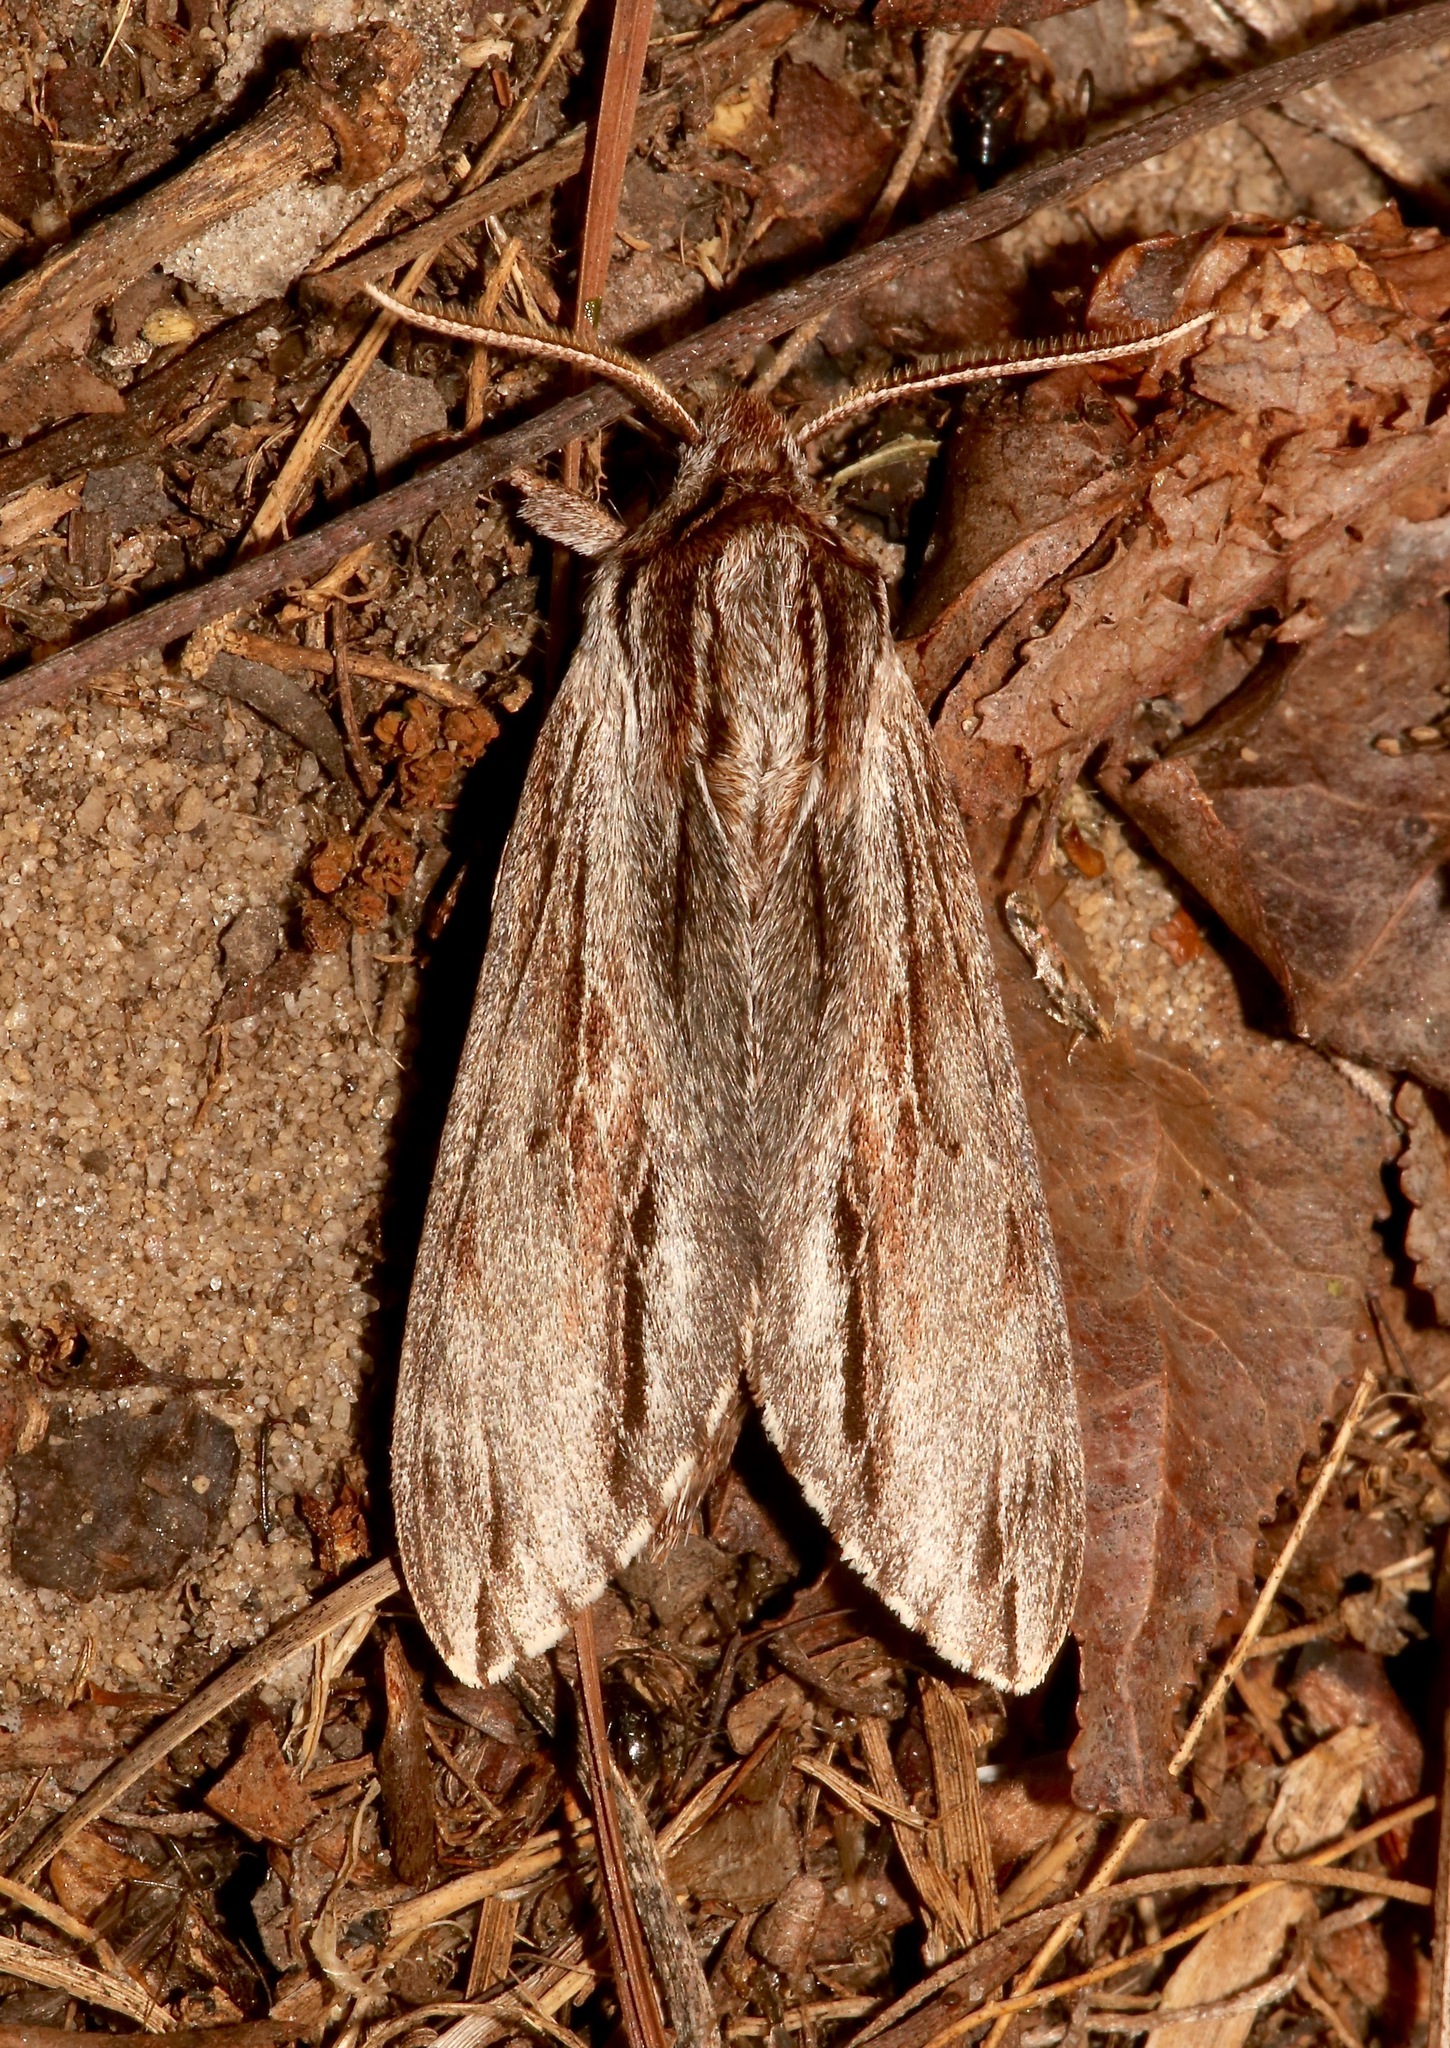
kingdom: Animalia
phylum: Arthropoda
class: Insecta
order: Lepidoptera
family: Sphingidae
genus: Isoparce
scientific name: Isoparce cupressi
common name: Cypress sphinx
